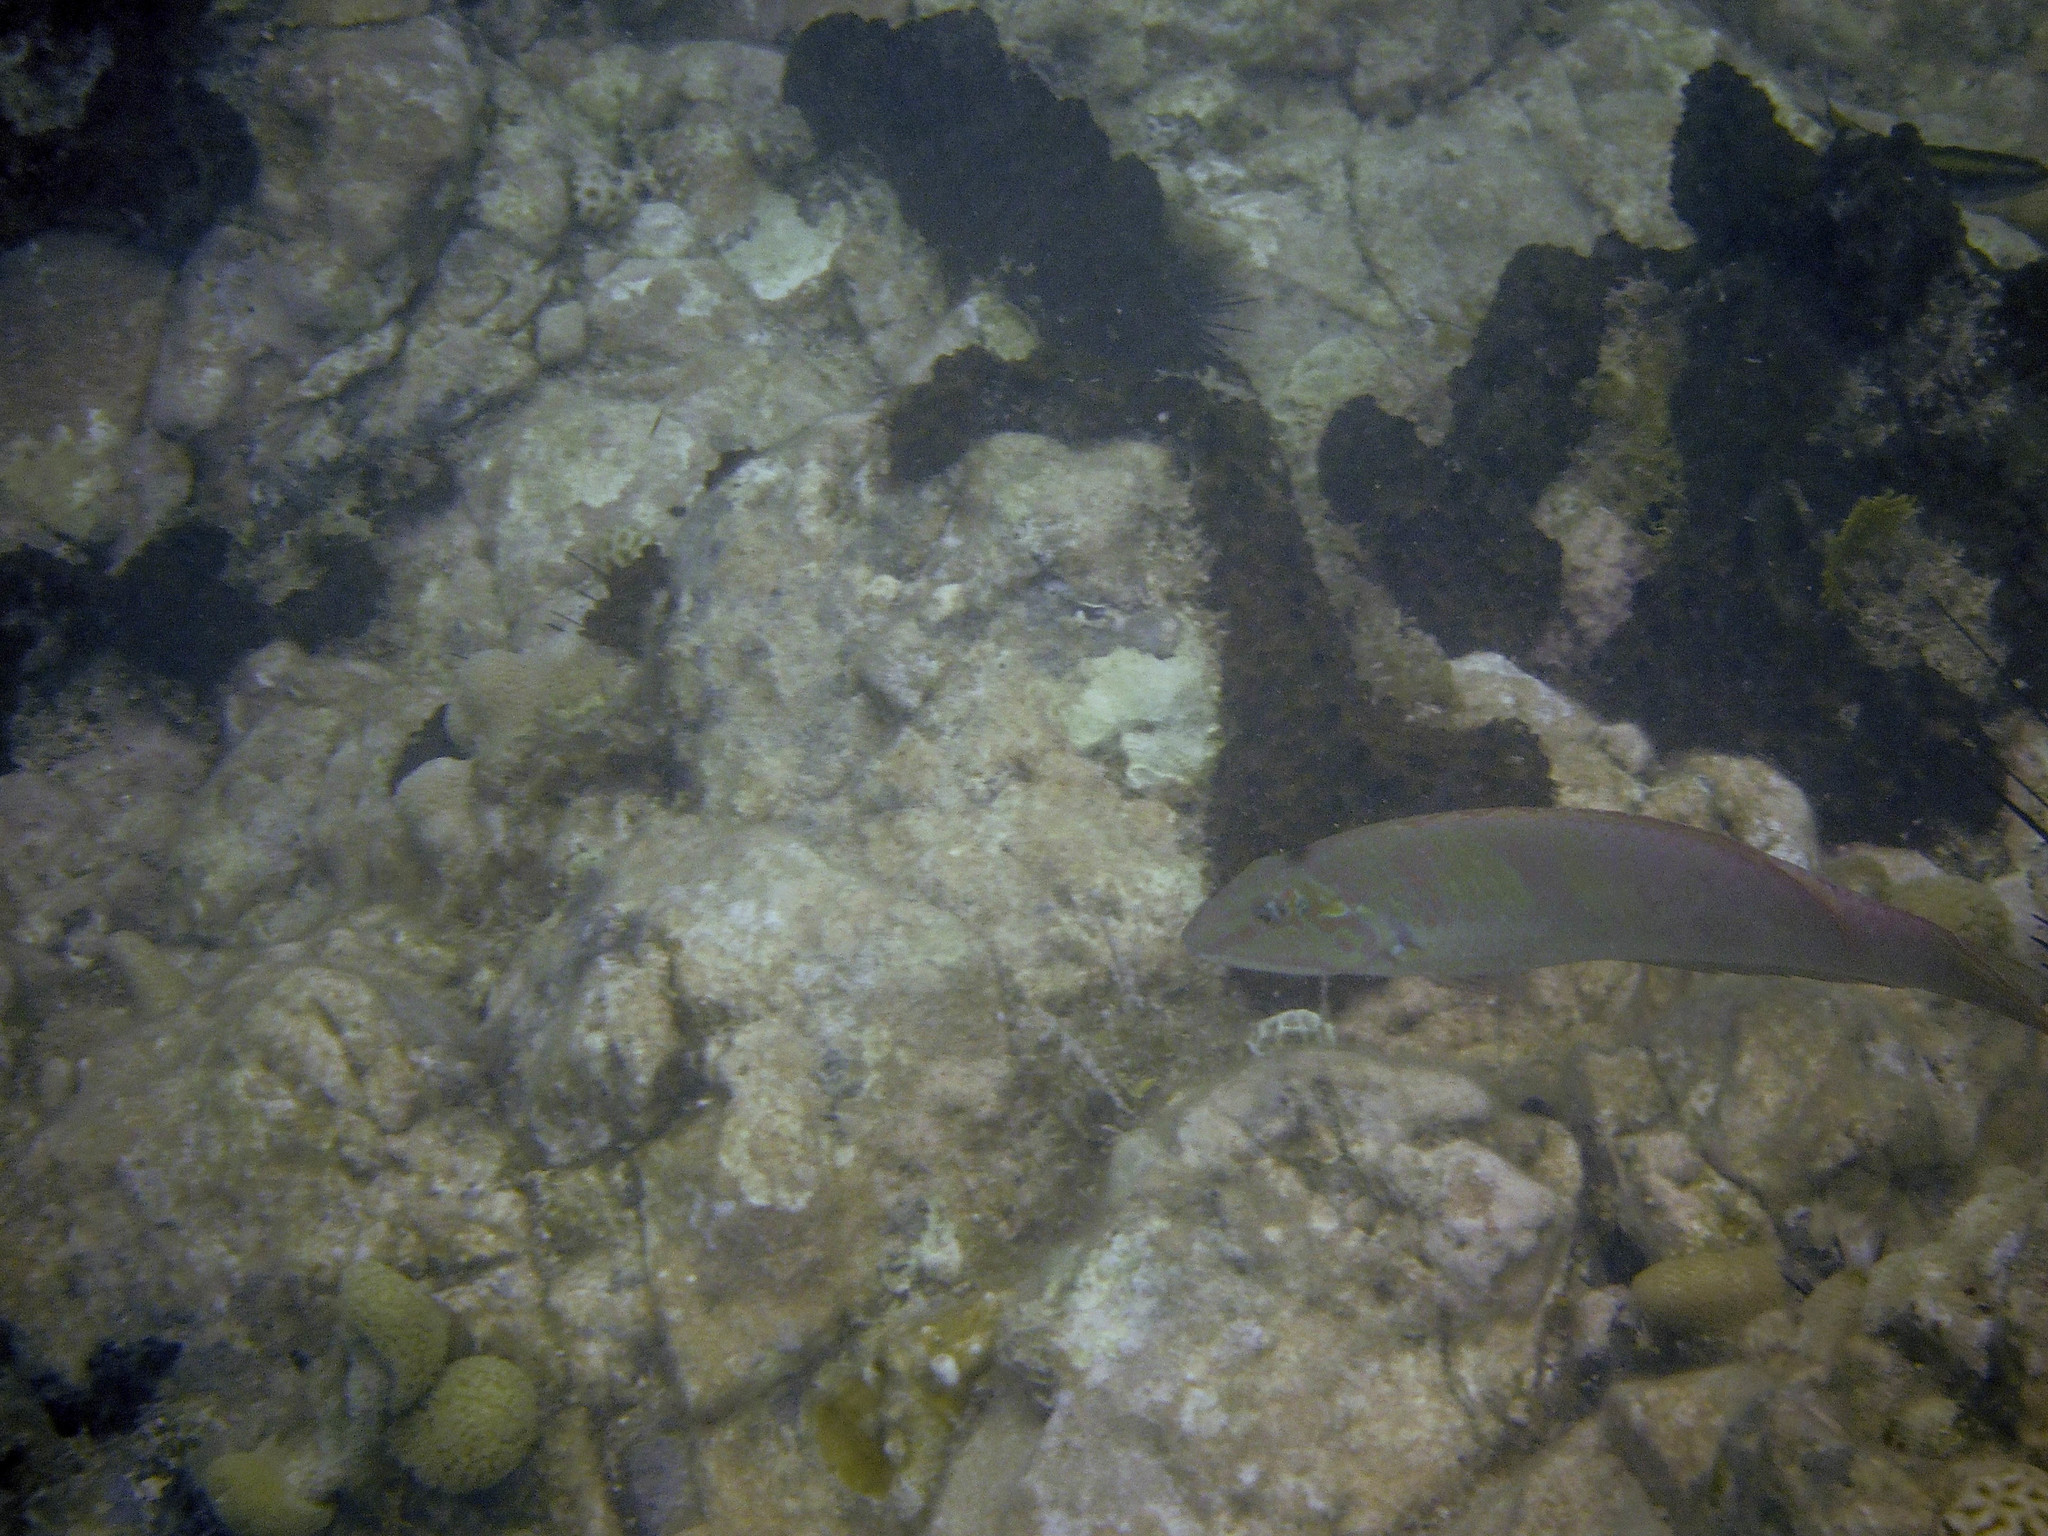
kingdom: Animalia
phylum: Chordata
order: Perciformes
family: Labridae
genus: Halichoeres
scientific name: Halichoeres bivittatus
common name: Slippery dick
